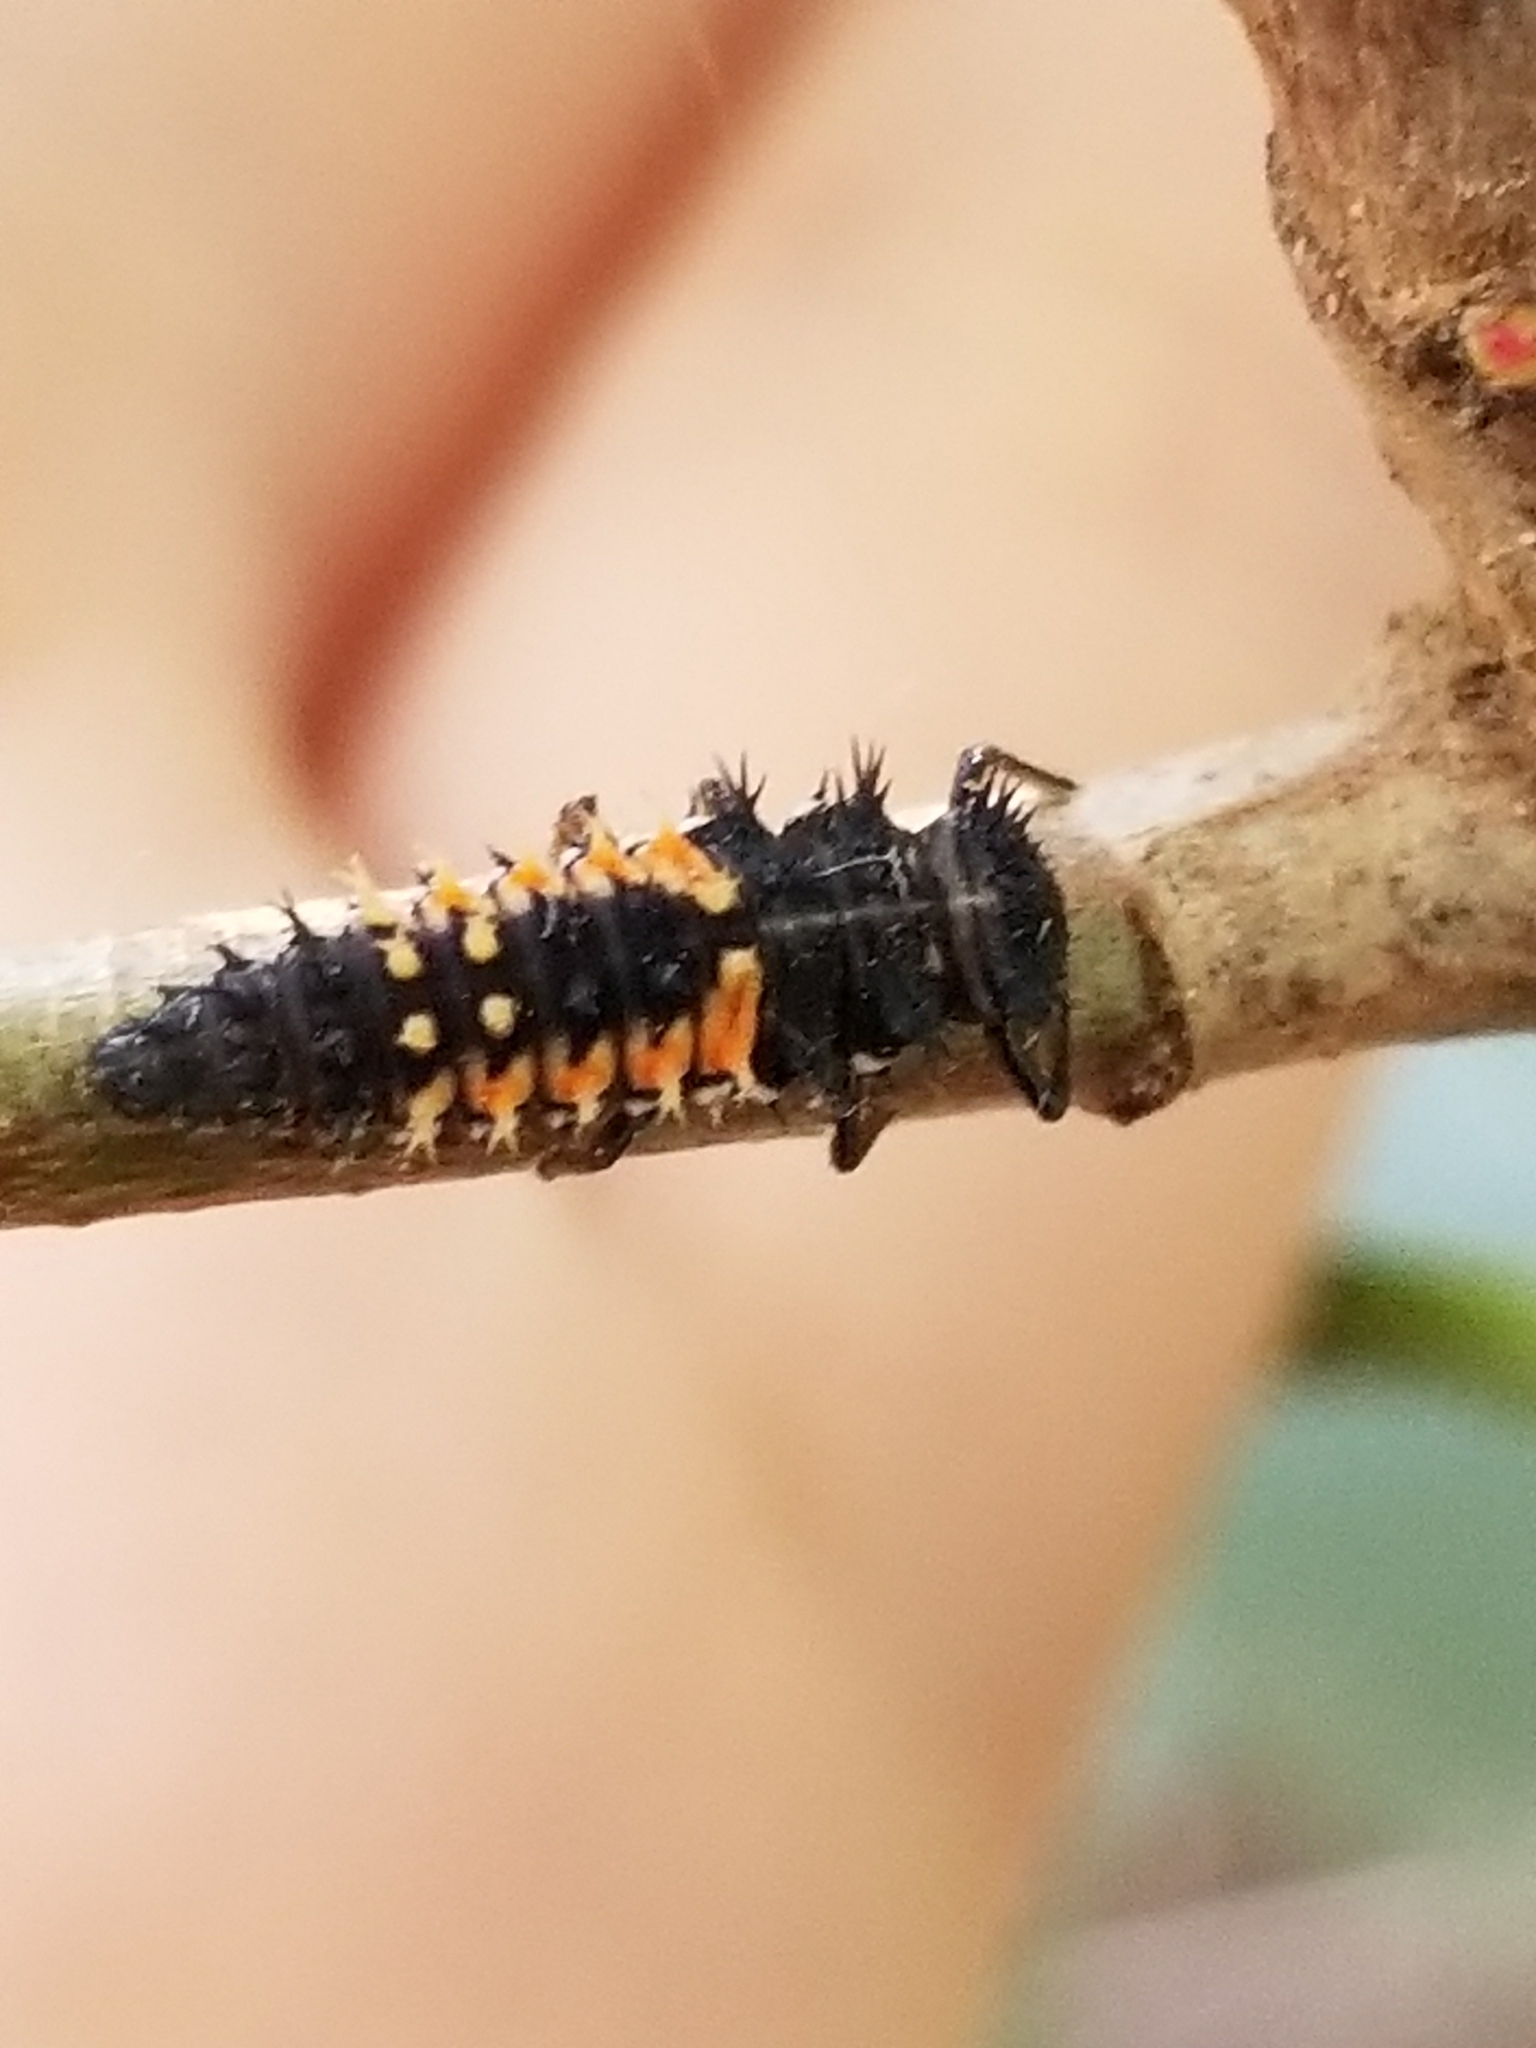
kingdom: Animalia
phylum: Arthropoda
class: Insecta
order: Coleoptera
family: Coccinellidae
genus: Harmonia
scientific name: Harmonia axyridis
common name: Harlequin ladybird
